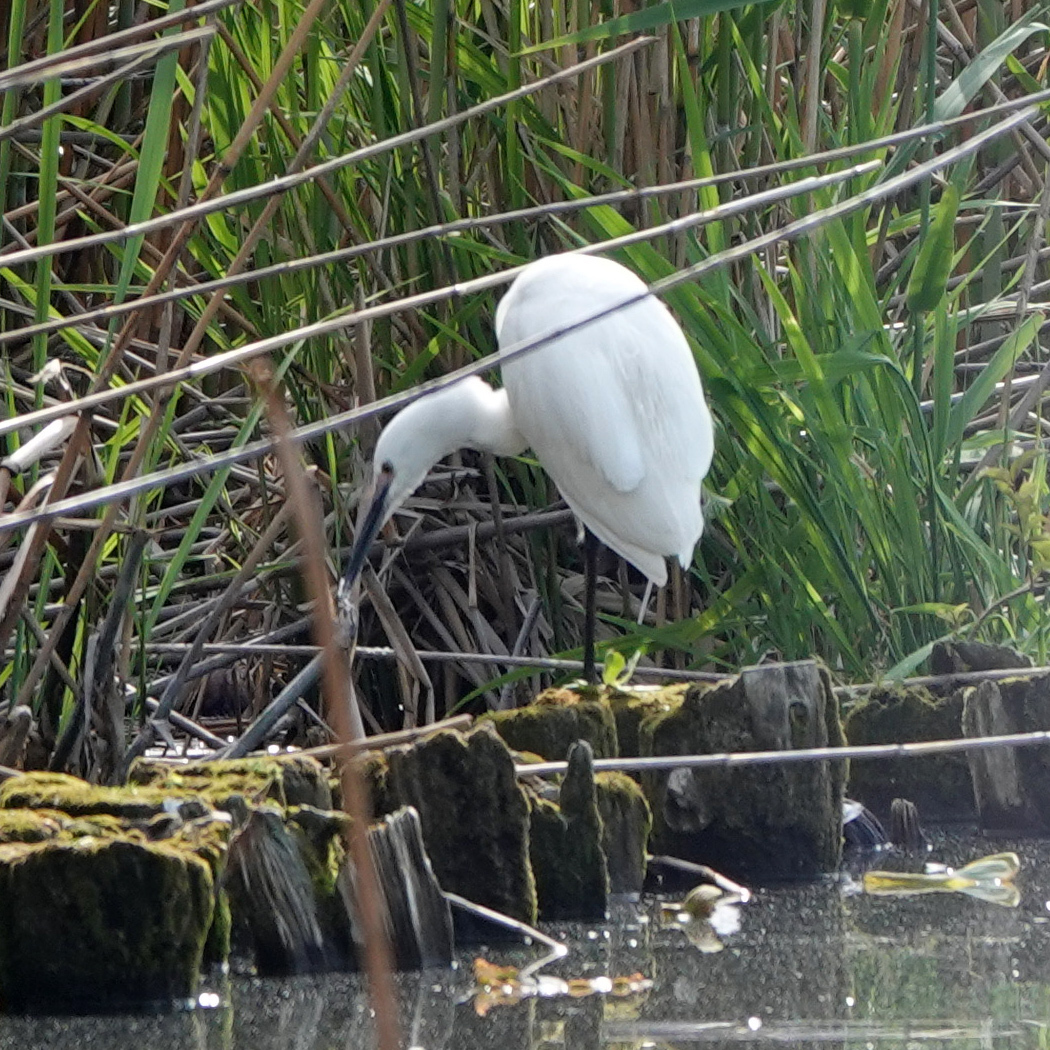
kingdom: Animalia
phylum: Chordata
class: Aves
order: Pelecaniformes
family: Ardeidae
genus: Egretta
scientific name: Egretta garzetta
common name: Little egret
